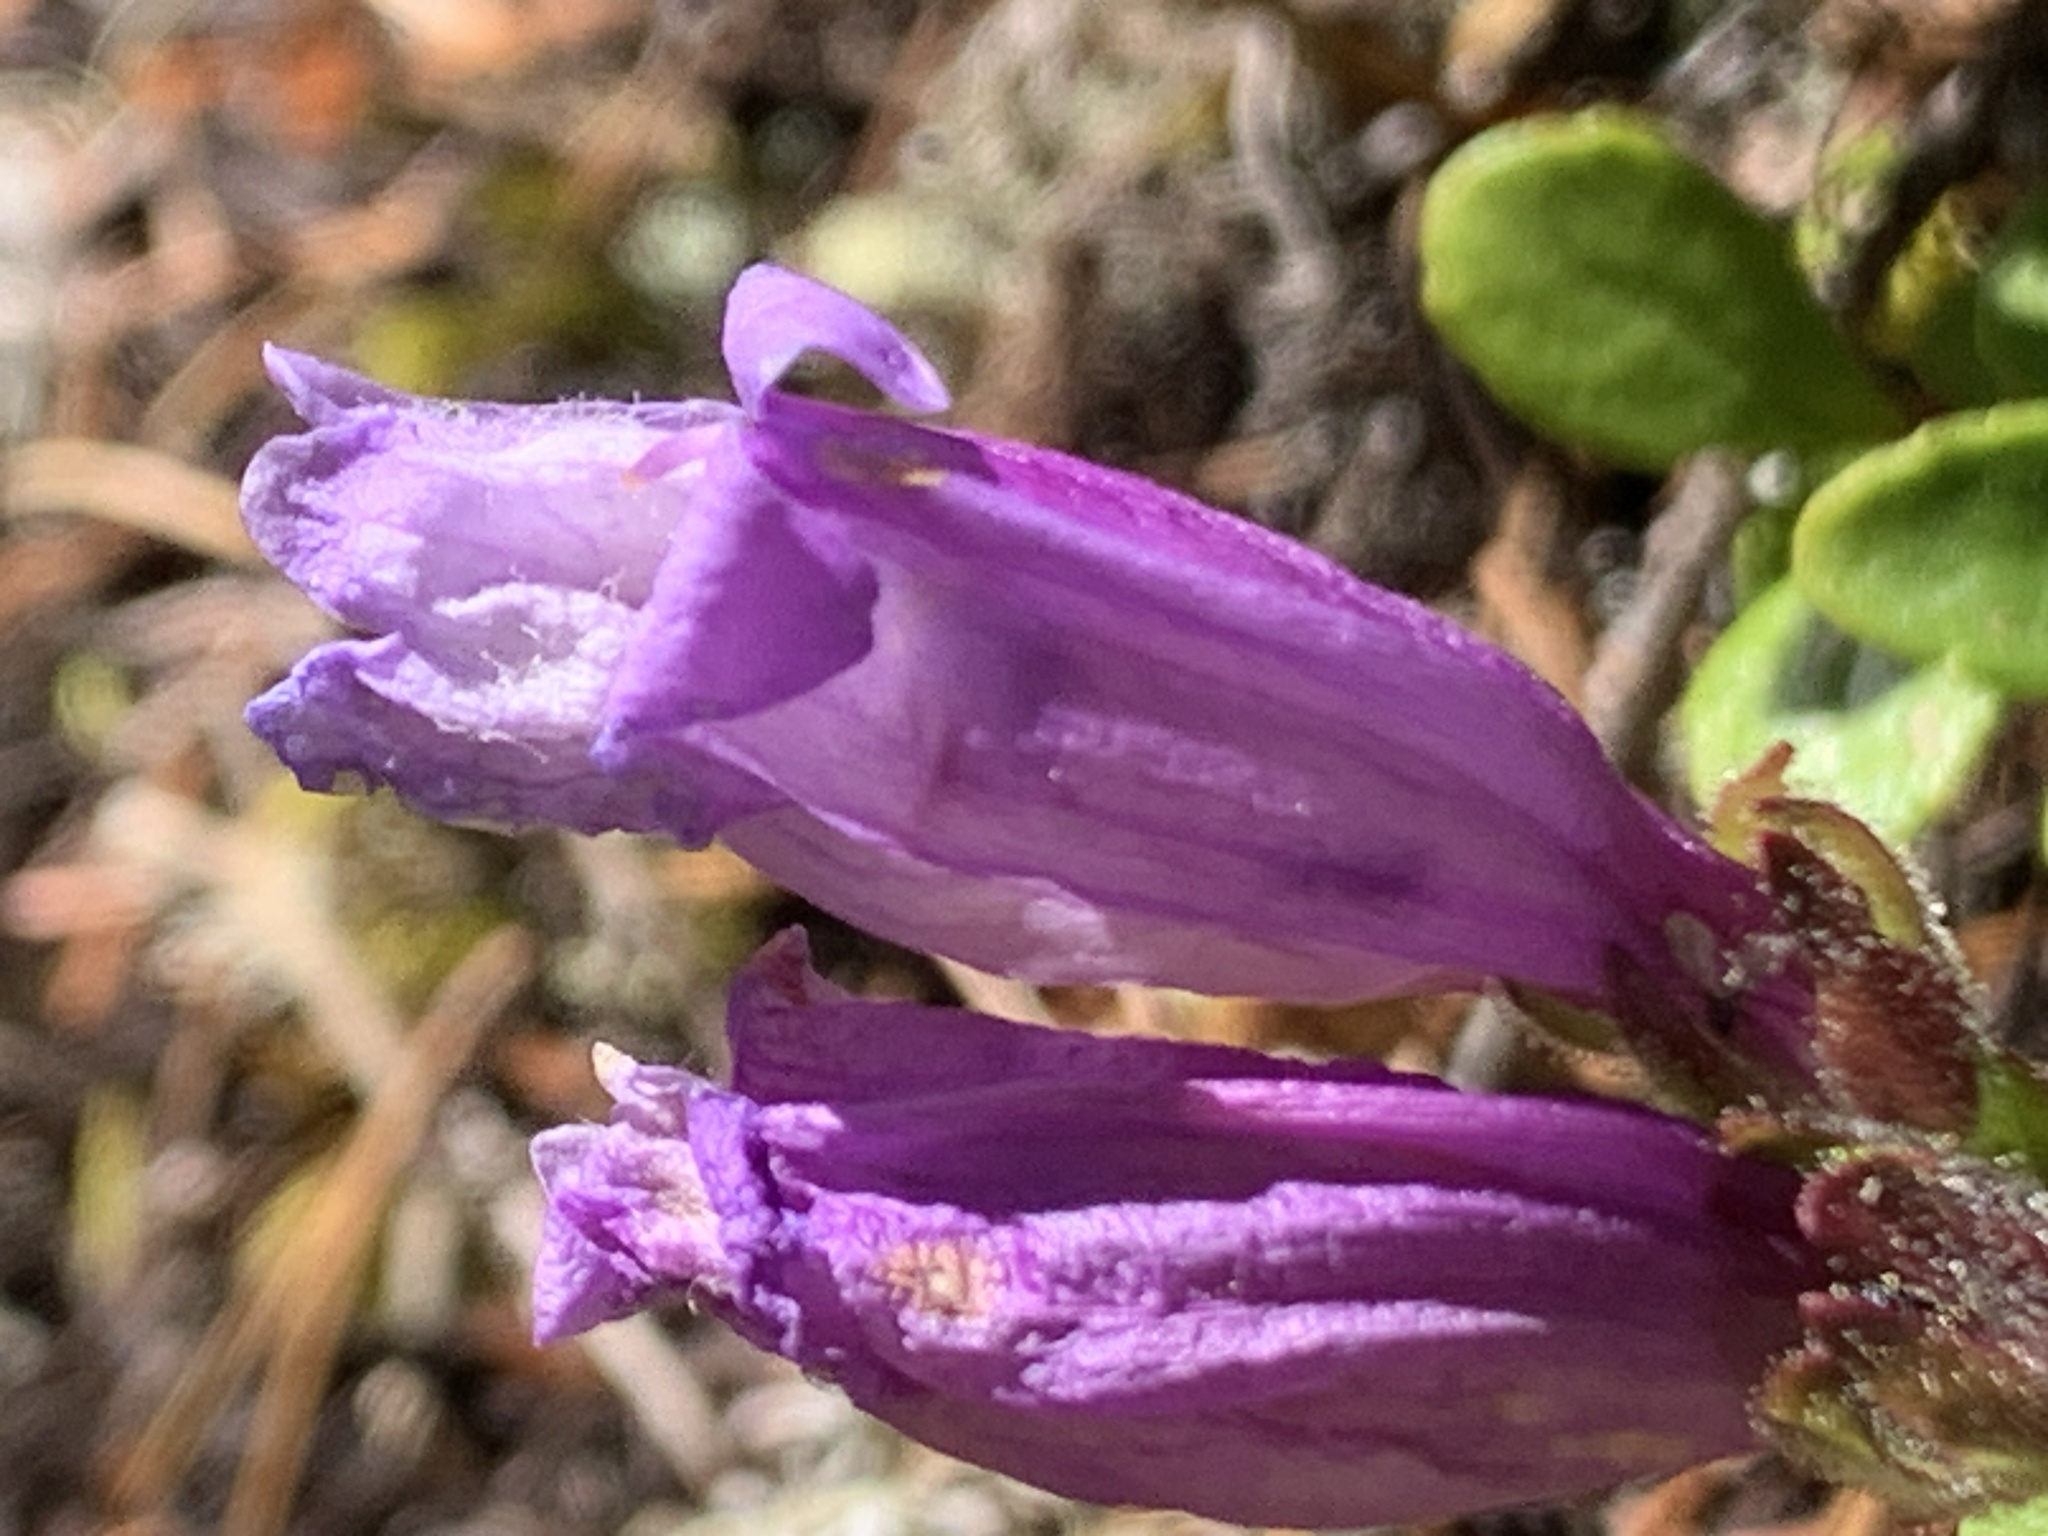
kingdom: Plantae
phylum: Tracheophyta
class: Magnoliopsida
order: Lamiales
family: Plantaginaceae
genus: Penstemon
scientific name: Penstemon davidsonii
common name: Davidson's penstemon
